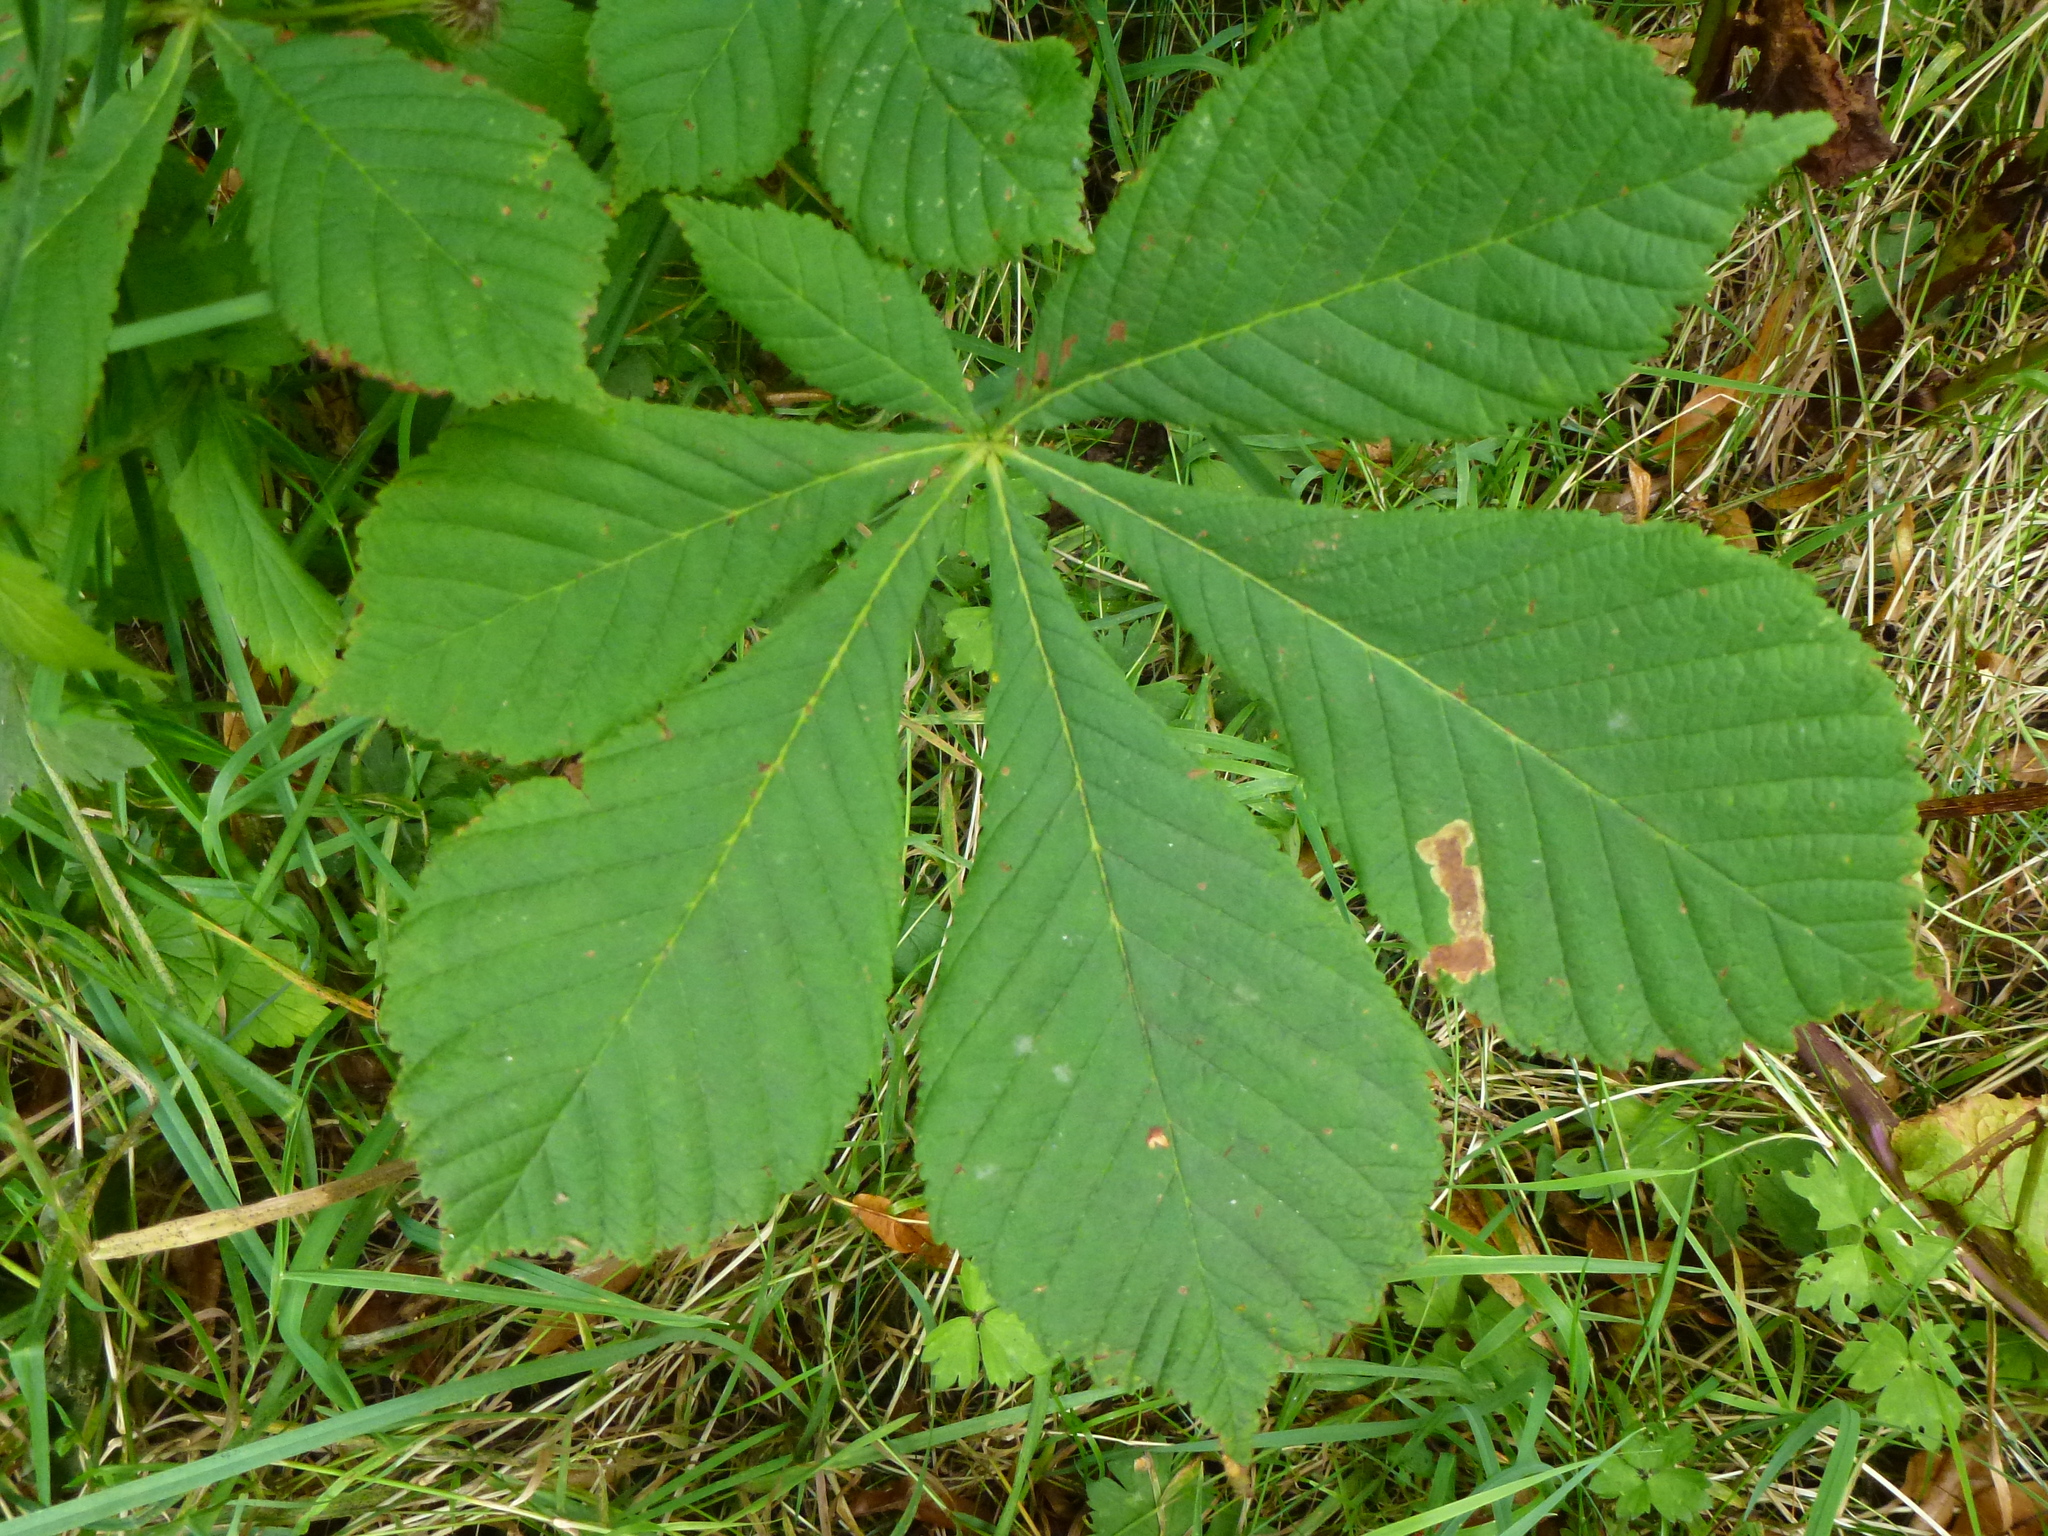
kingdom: Animalia
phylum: Arthropoda
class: Insecta
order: Lepidoptera
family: Gracillariidae
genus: Cameraria
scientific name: Cameraria ohridella
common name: Horse-chestnut leaf-miner
